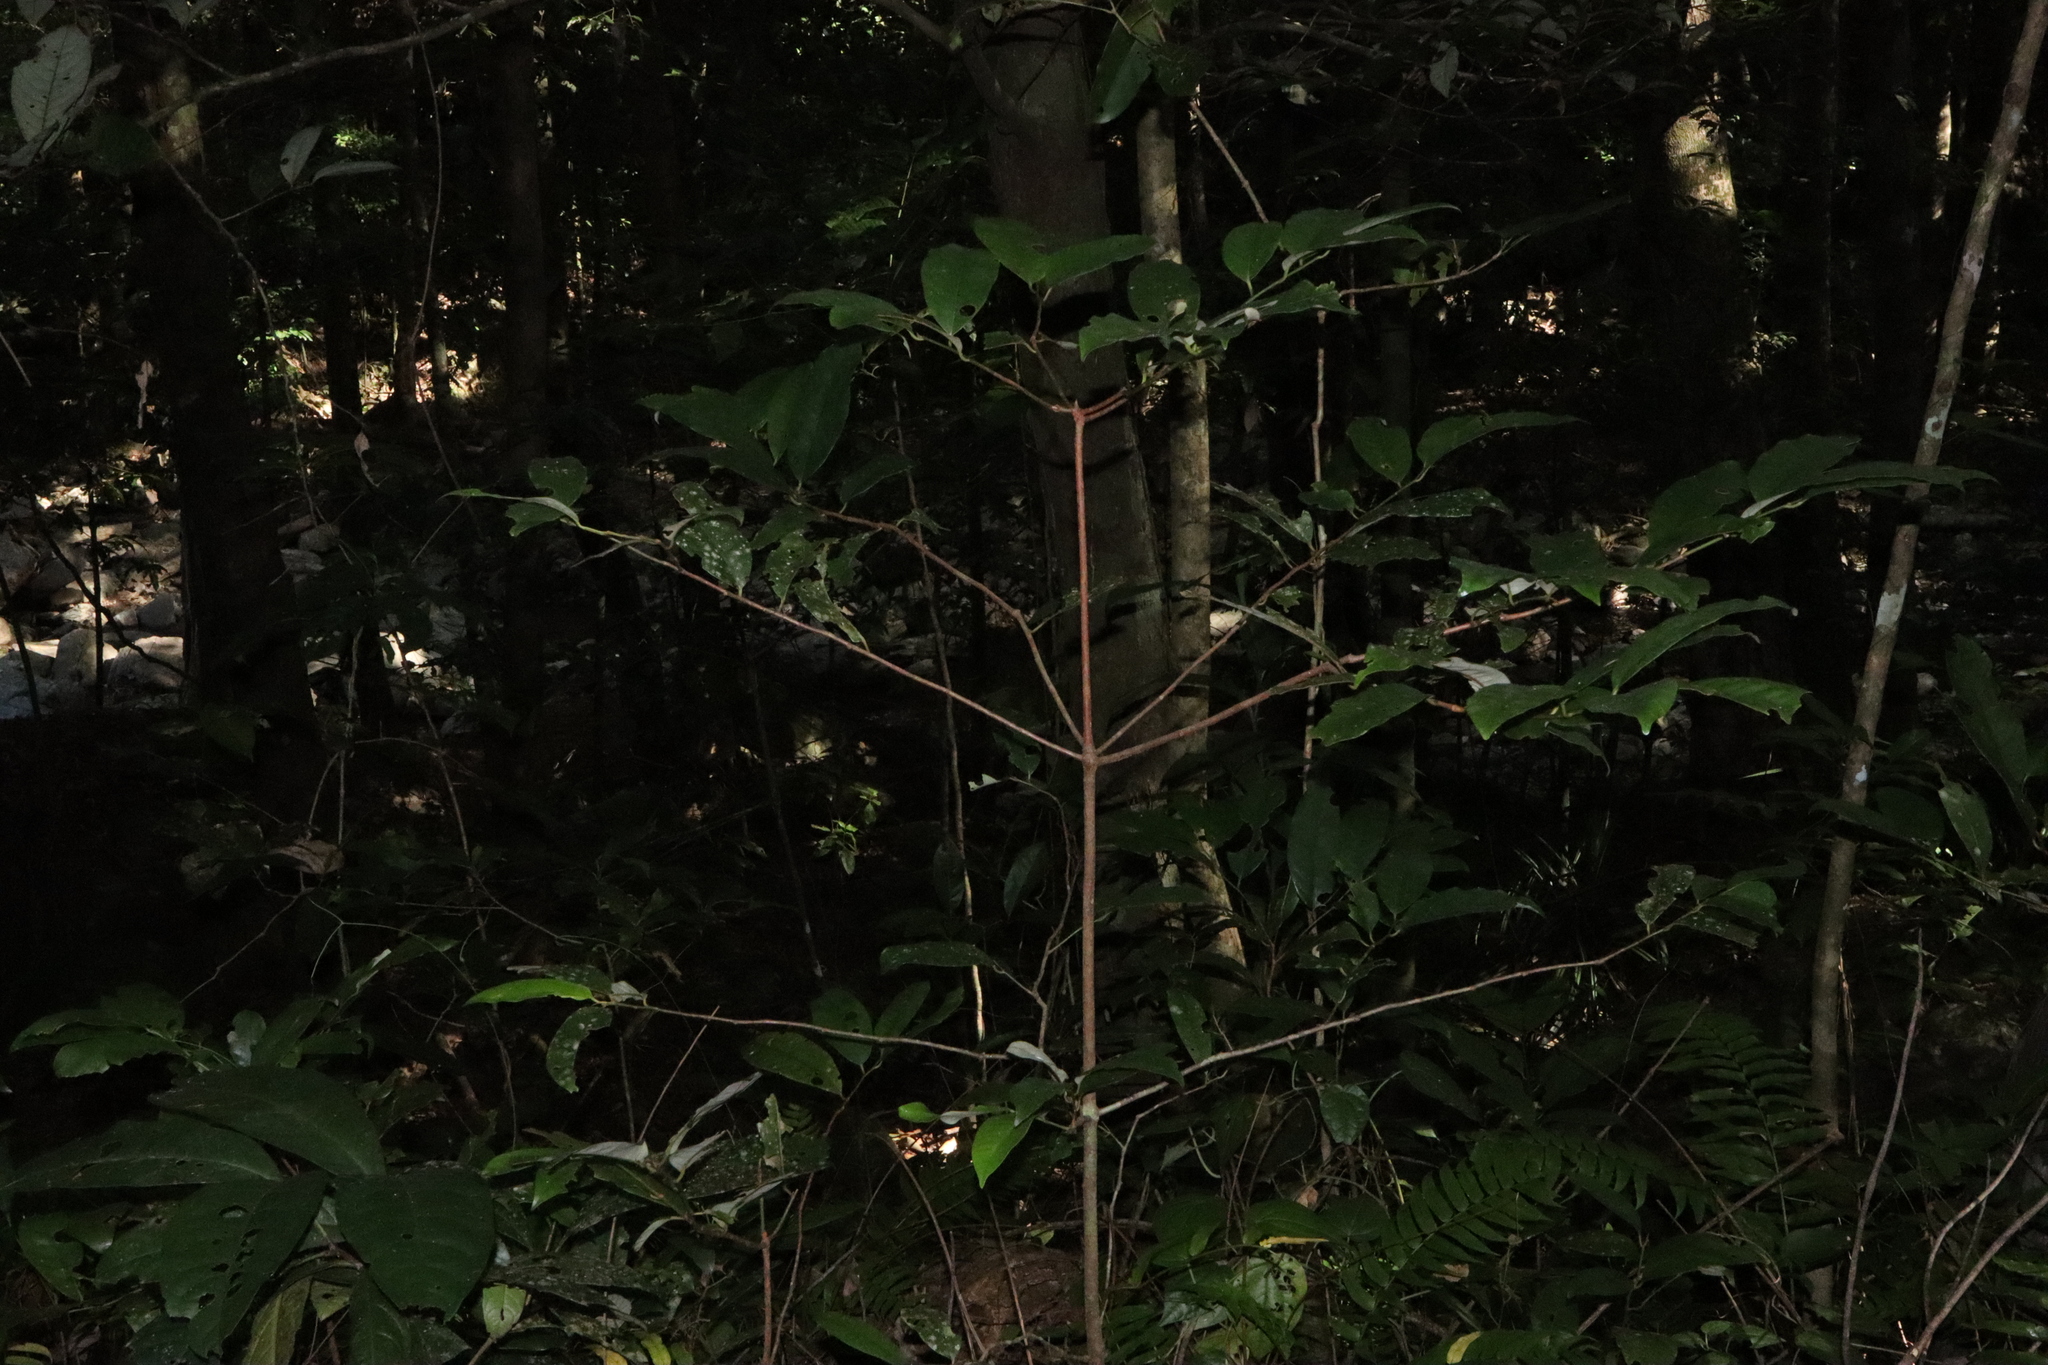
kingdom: Plantae
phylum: Tracheophyta
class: Magnoliopsida
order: Magnoliales
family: Myristicaceae
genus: Myristica
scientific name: Myristica globosa
